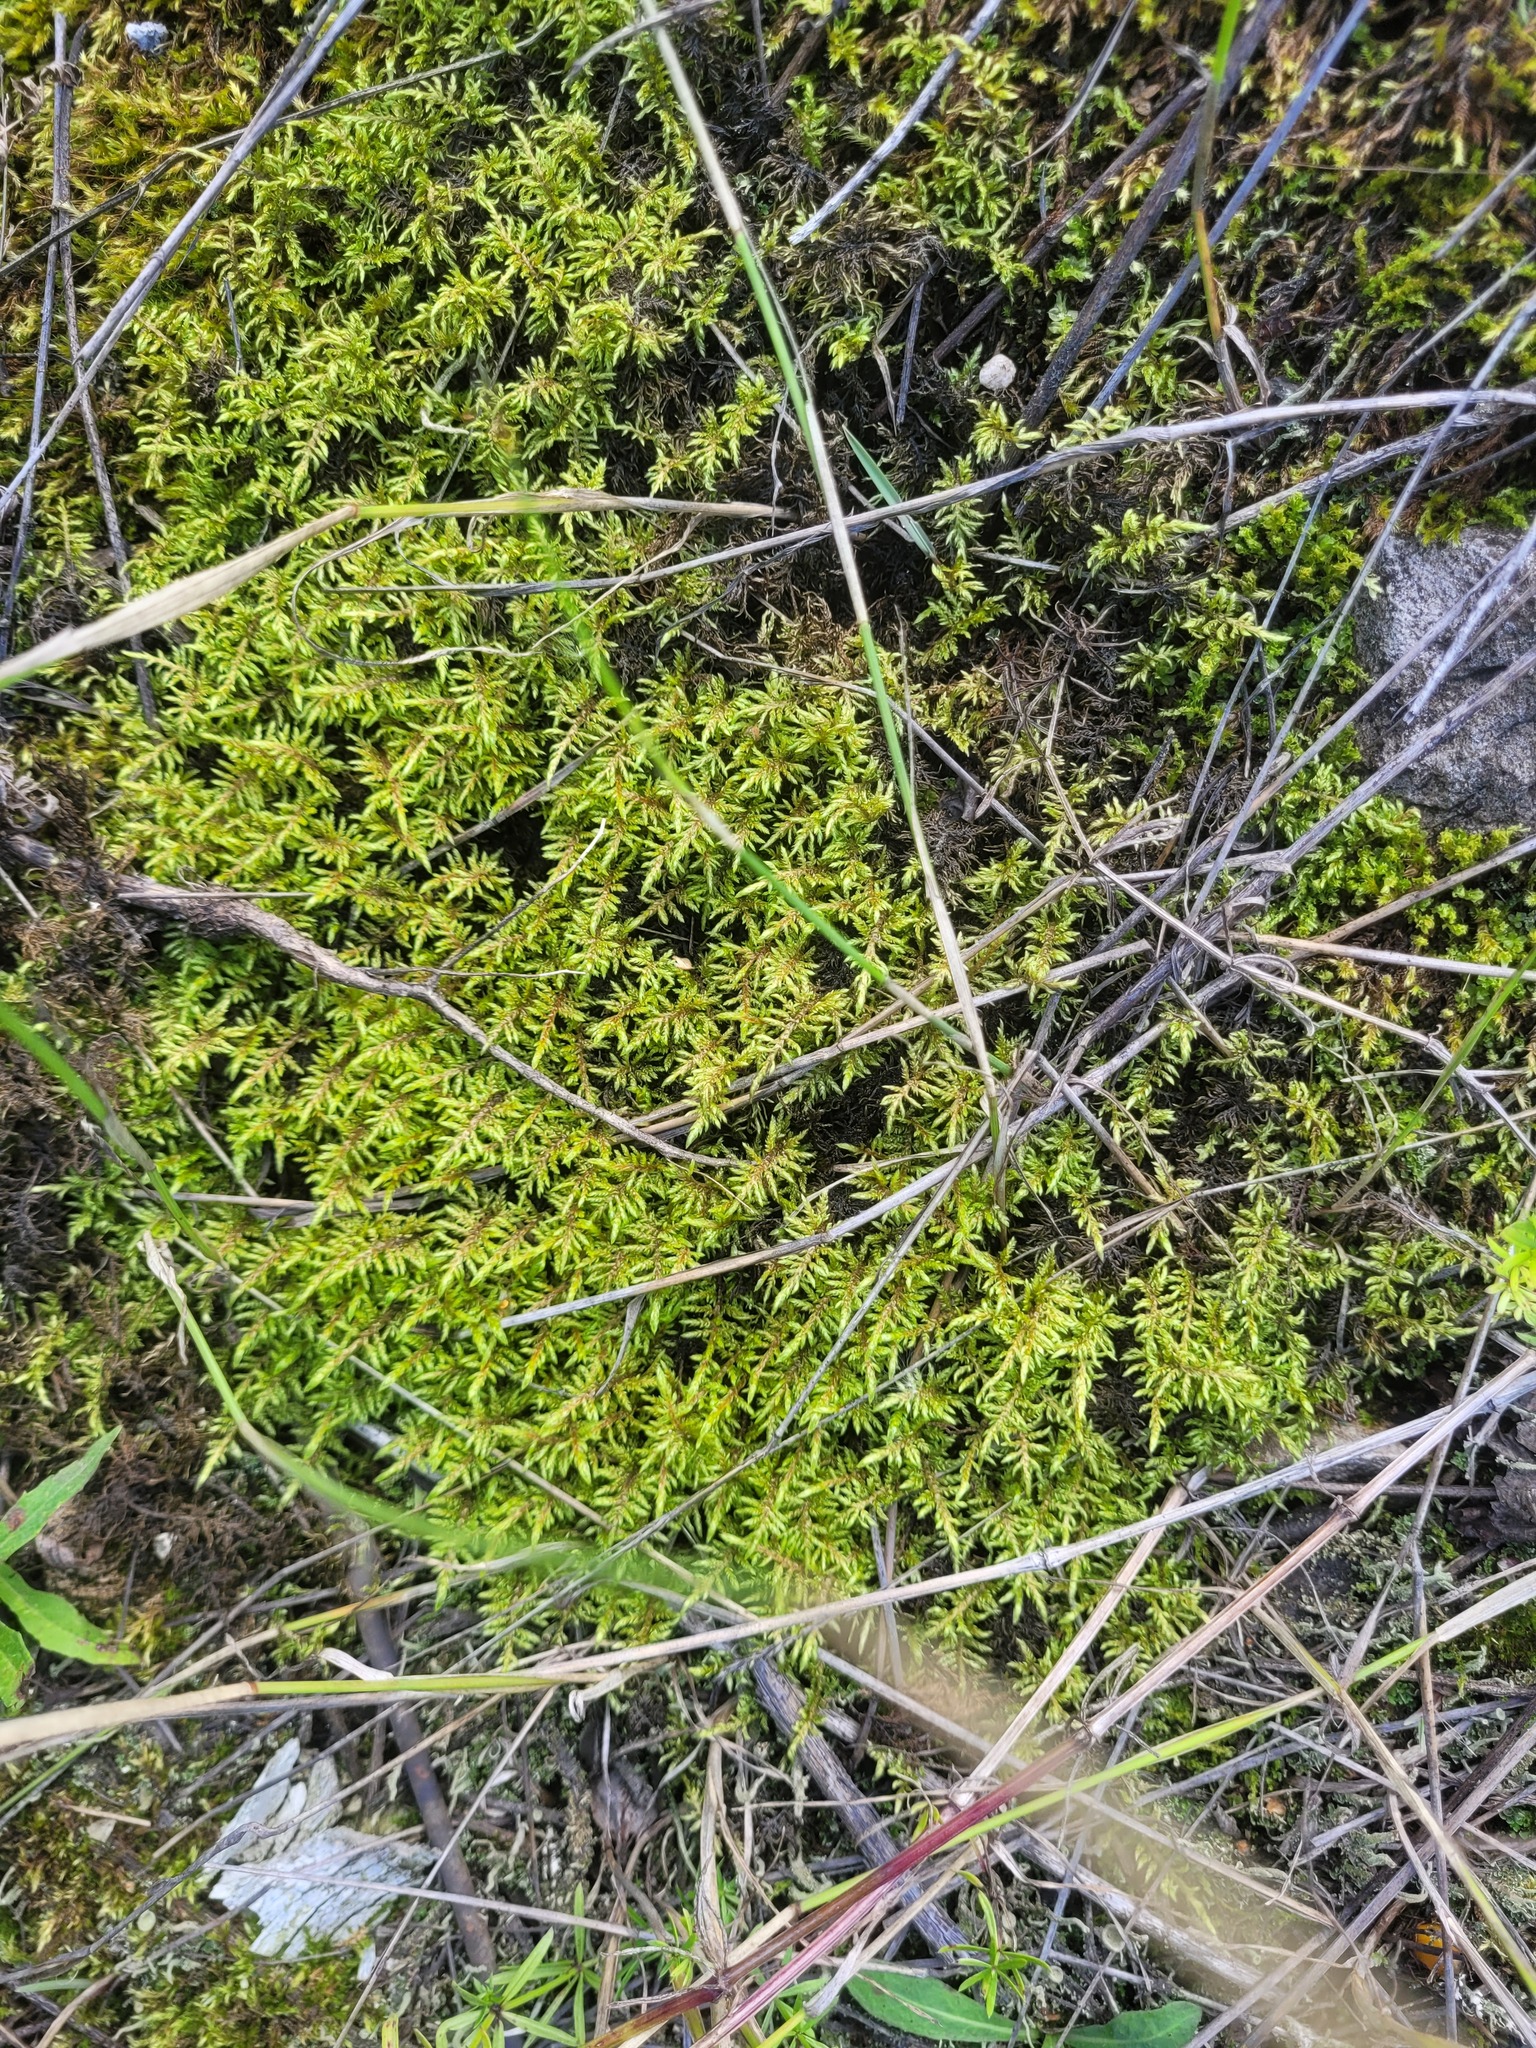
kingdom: Plantae
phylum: Bryophyta
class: Bryopsida
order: Hypnales
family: Hylocomiaceae
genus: Hylocomium
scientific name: Hylocomium splendens
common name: Stairstep moss
